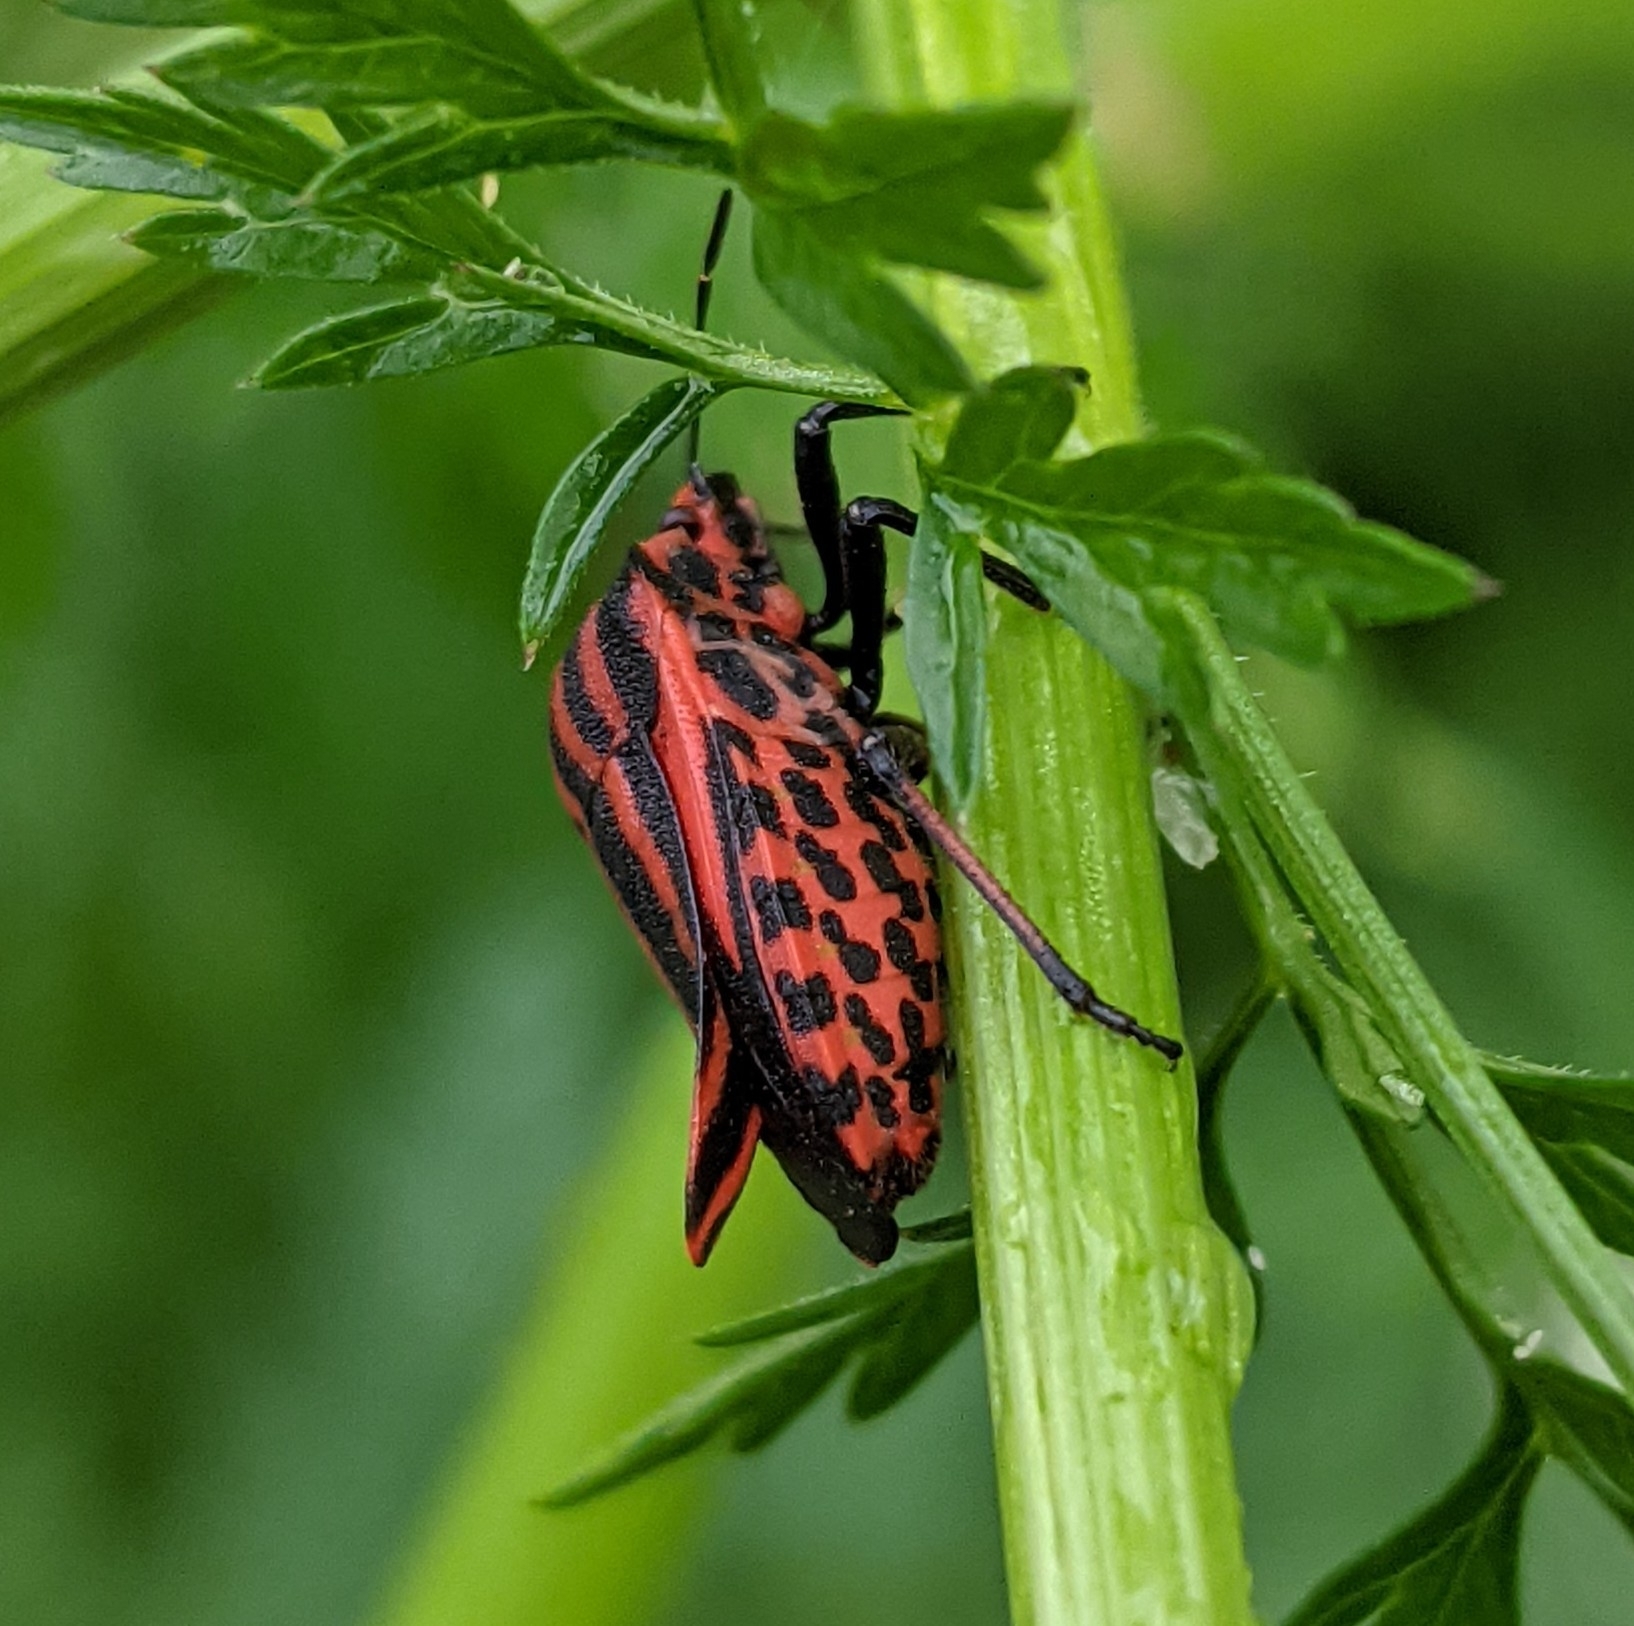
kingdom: Animalia
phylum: Arthropoda
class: Insecta
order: Hemiptera
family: Pentatomidae
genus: Graphosoma
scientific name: Graphosoma italicum
